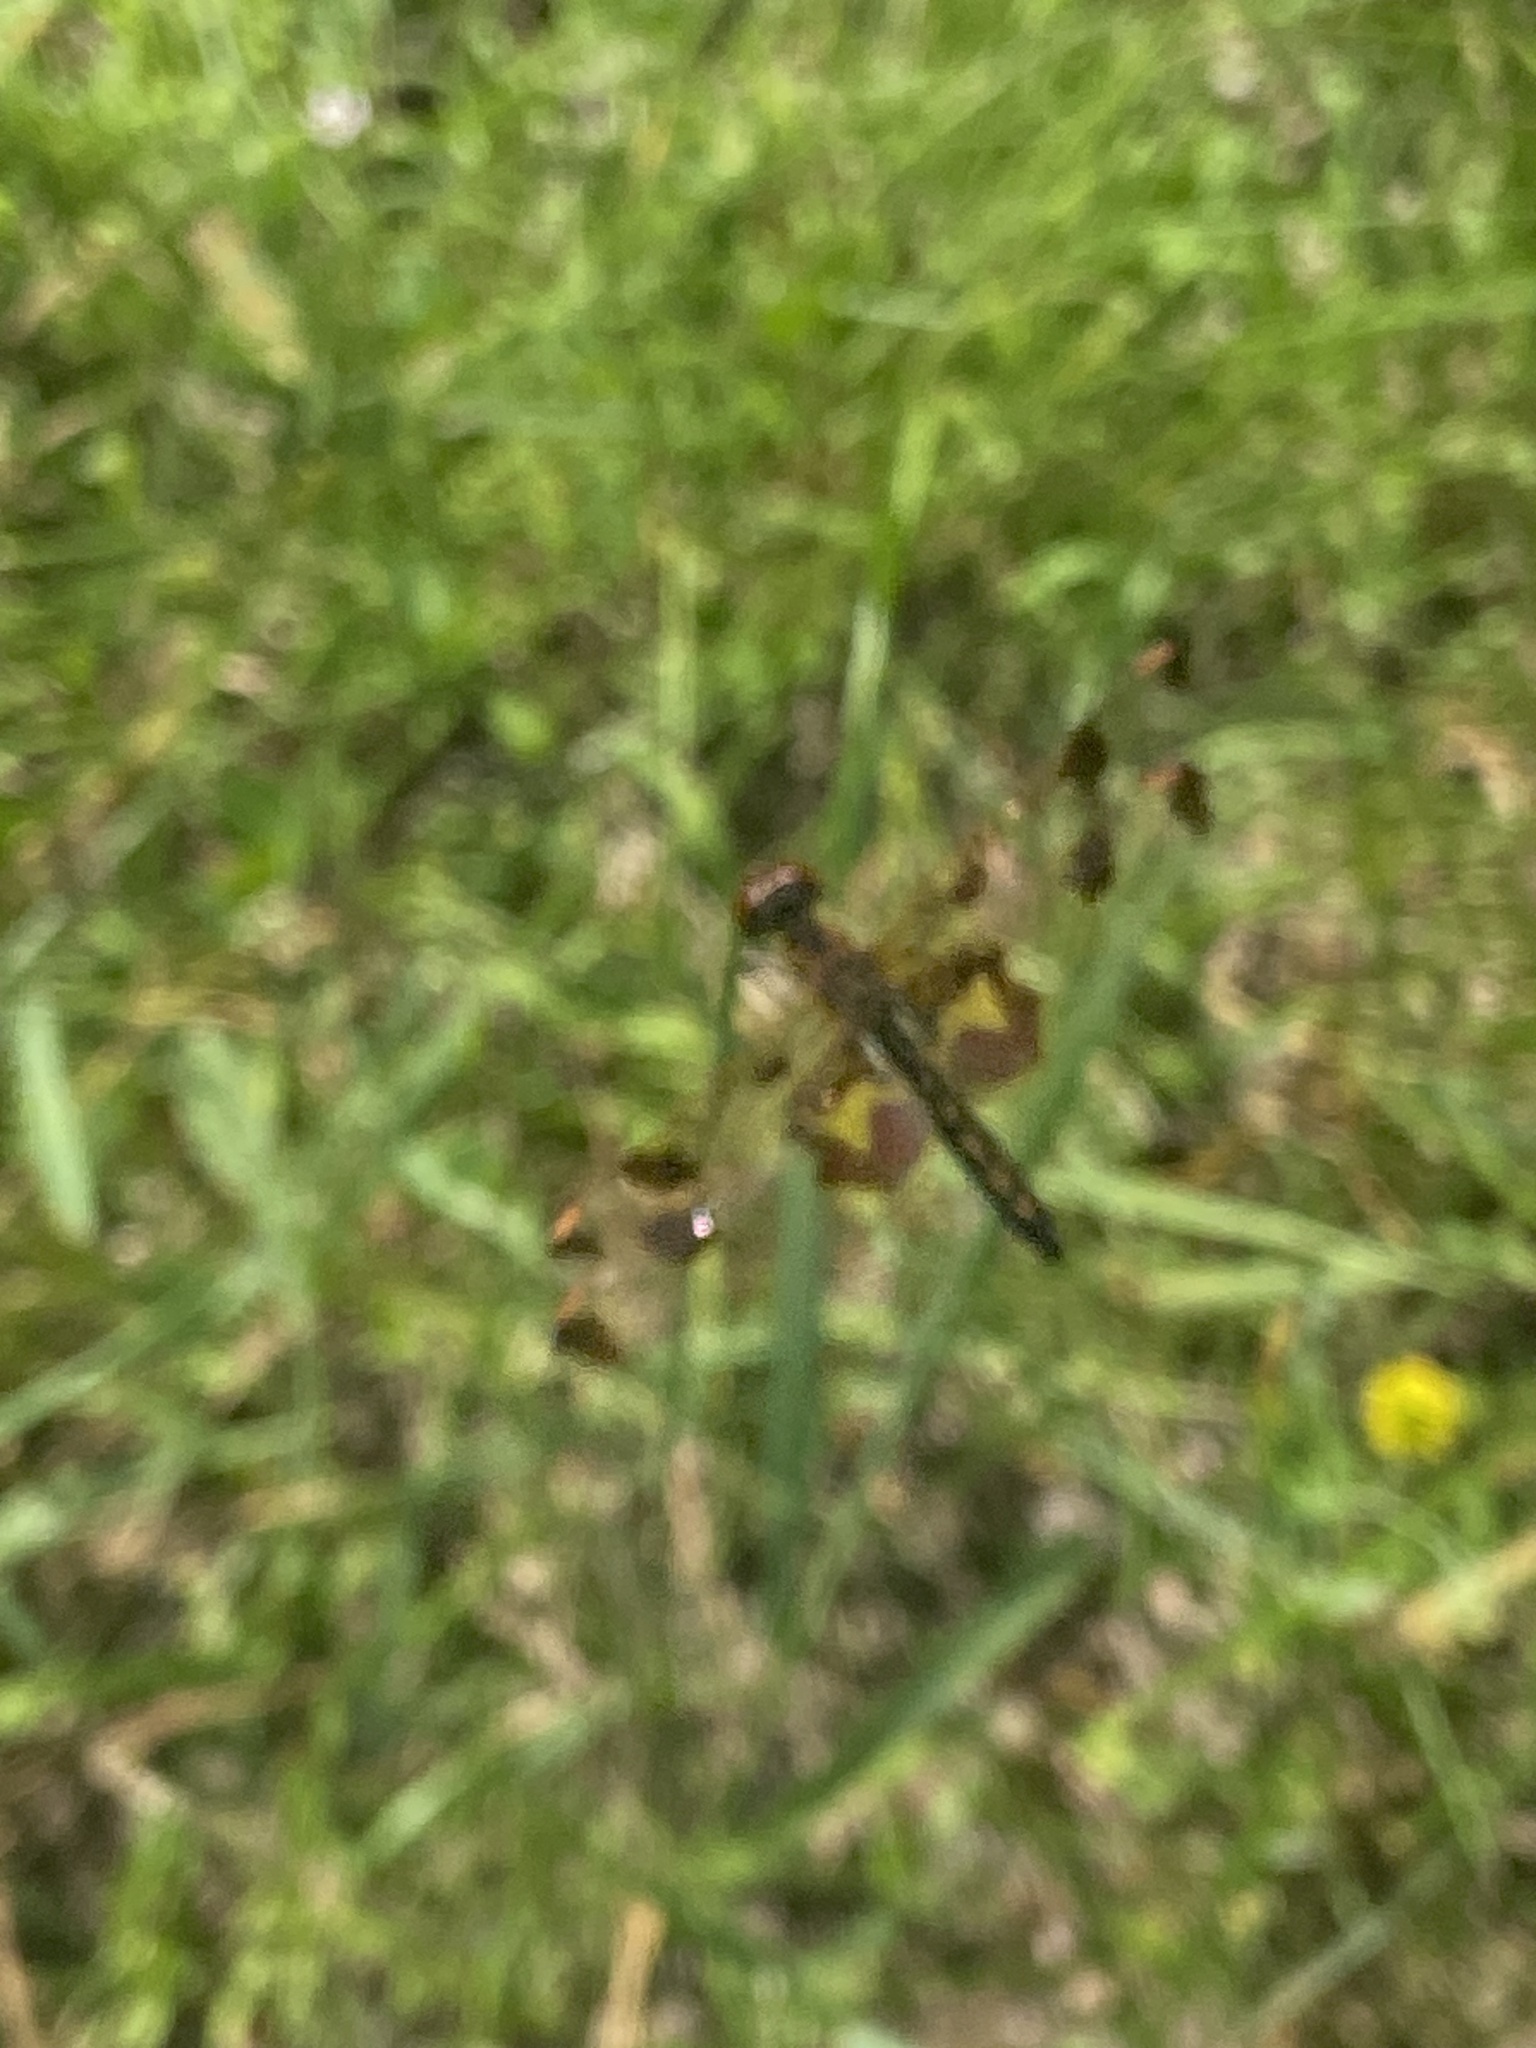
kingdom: Animalia
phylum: Arthropoda
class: Insecta
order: Odonata
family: Libellulidae
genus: Celithemis
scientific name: Celithemis elisa
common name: Calico pennant
